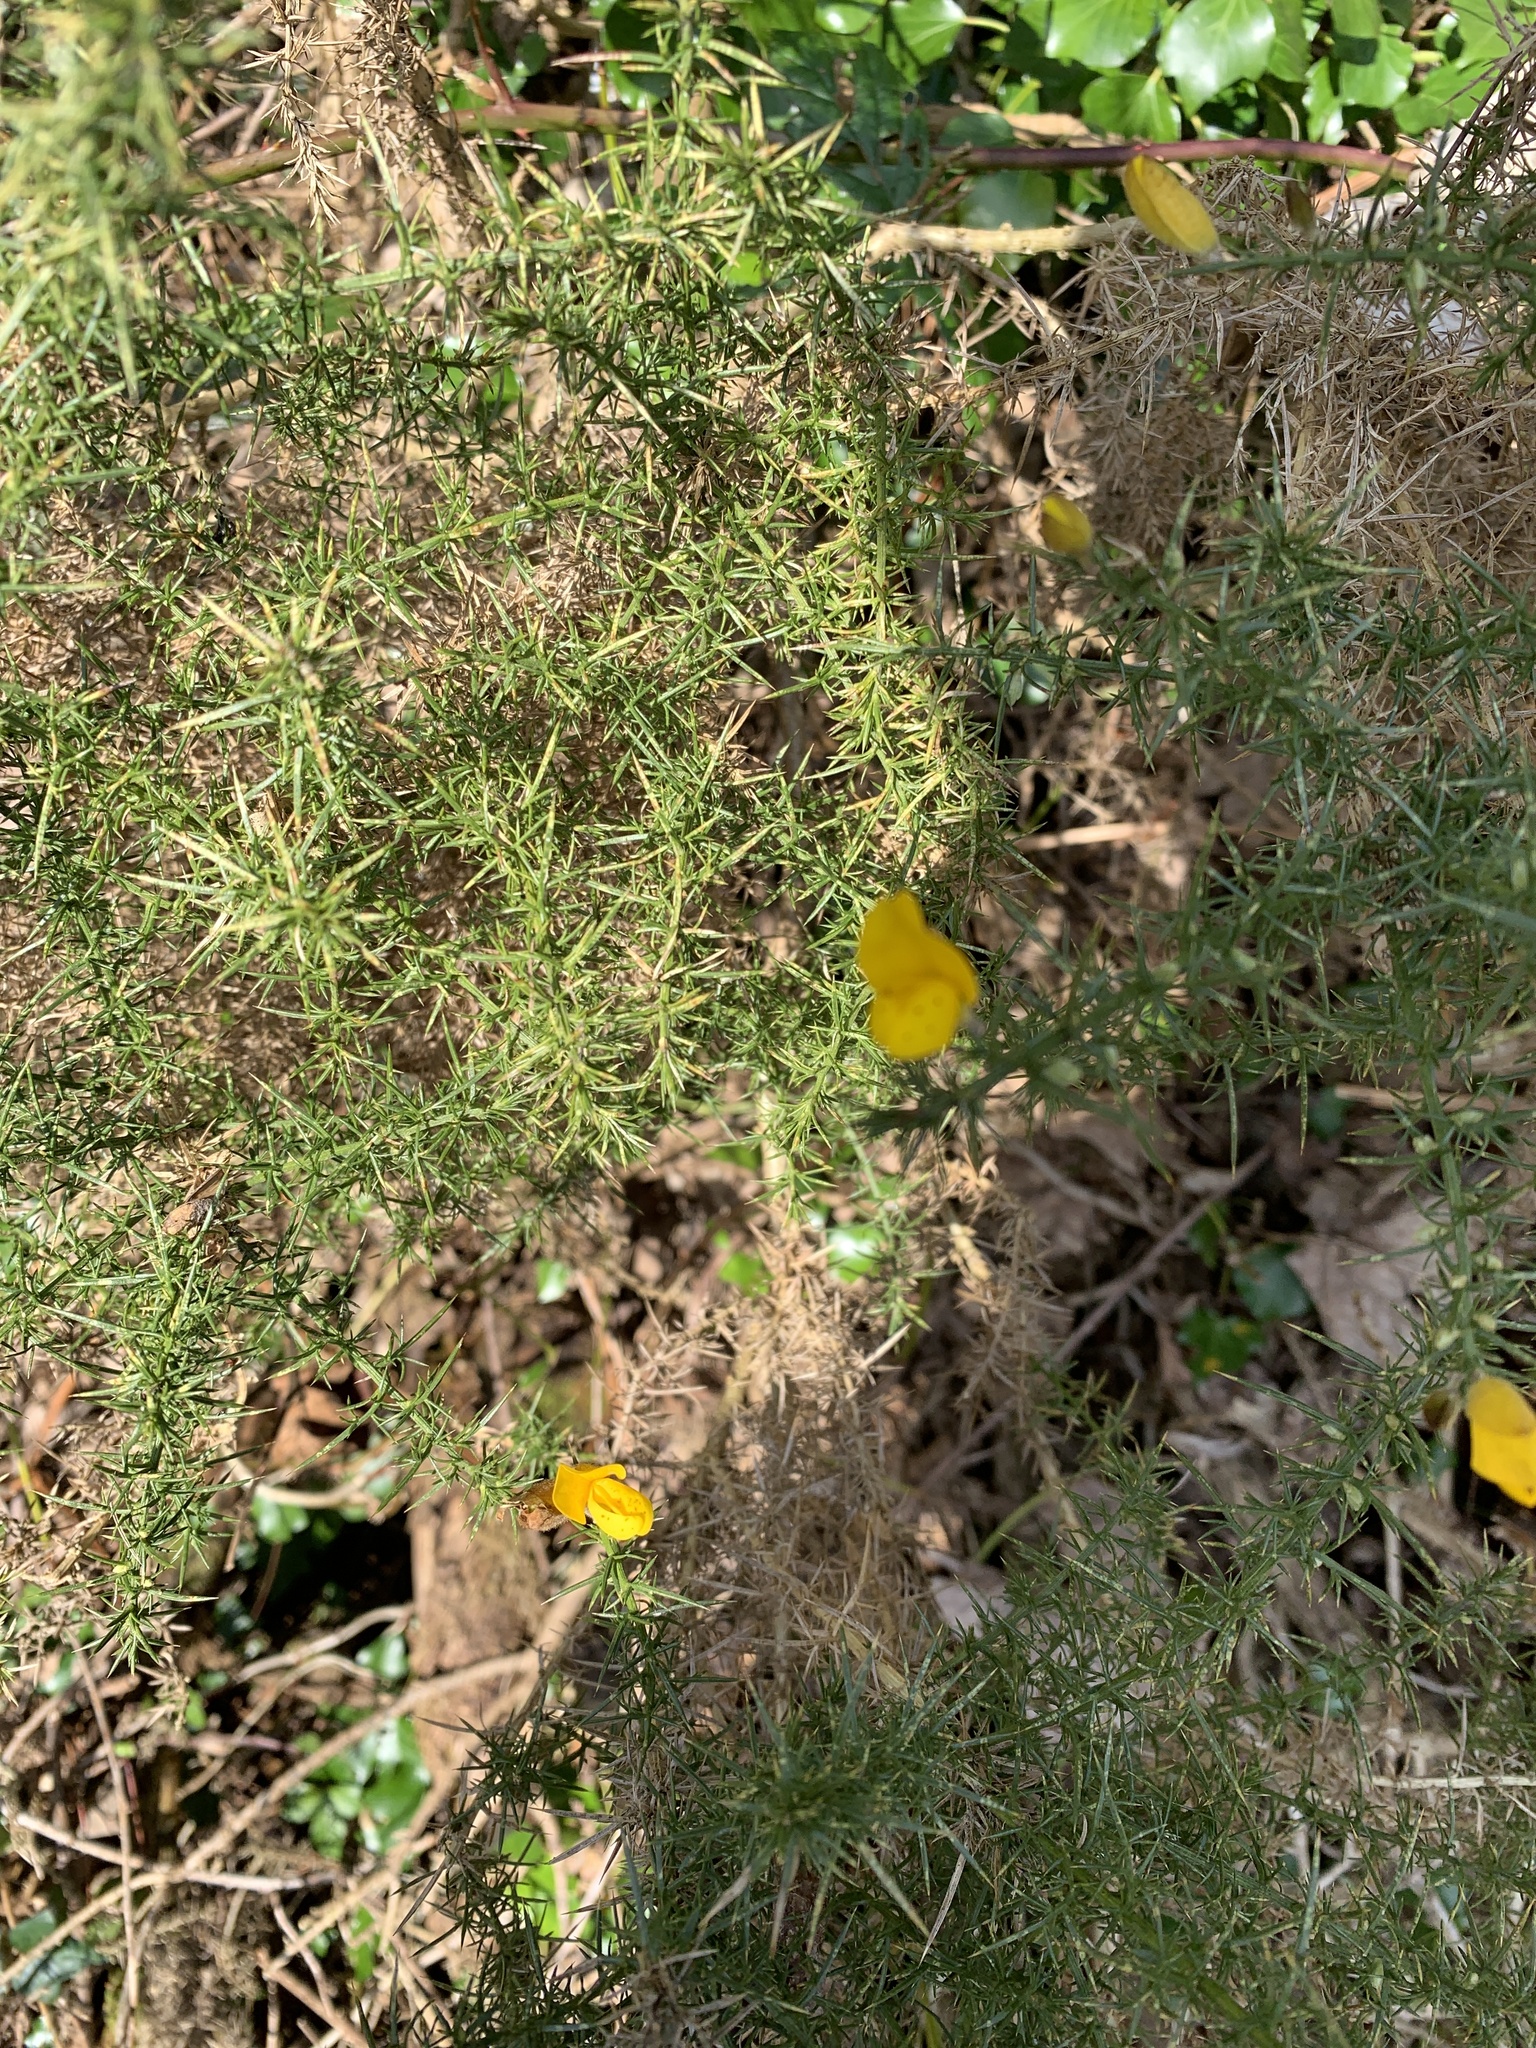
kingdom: Plantae
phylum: Tracheophyta
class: Magnoliopsida
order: Fabales
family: Fabaceae
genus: Ulex
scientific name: Ulex europaeus
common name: Common gorse
